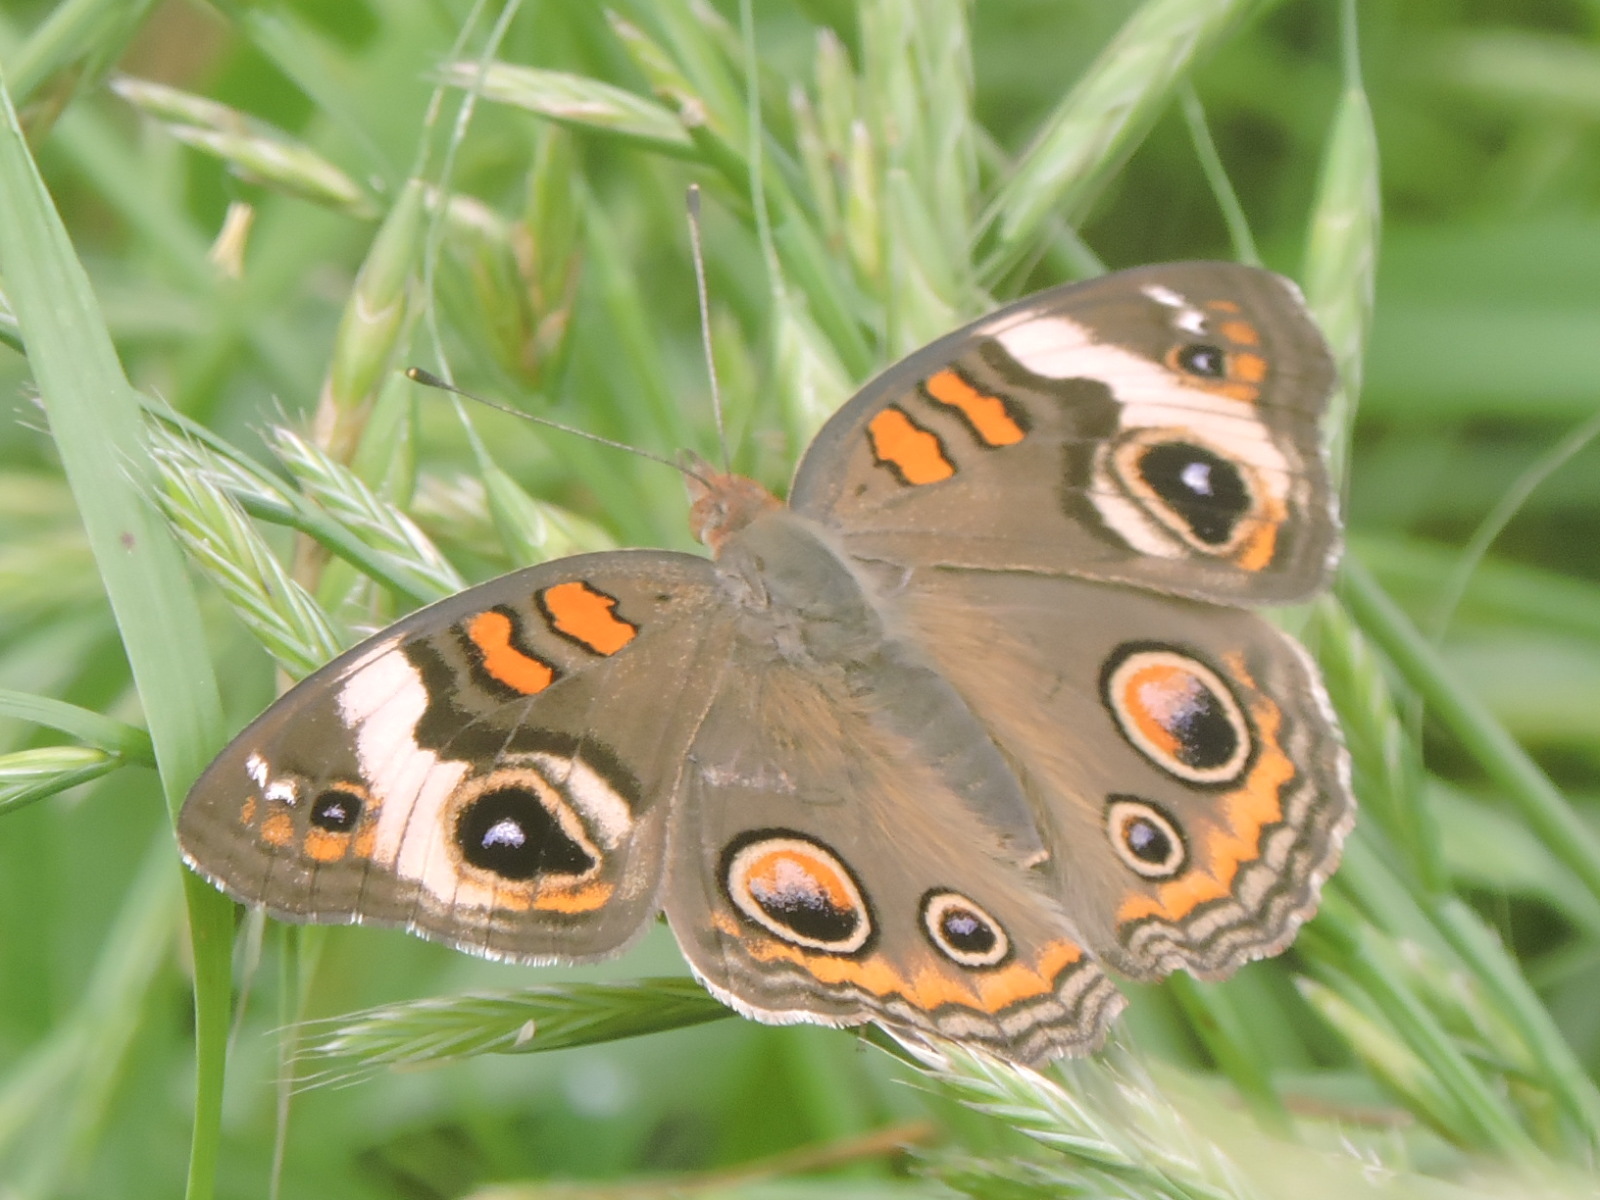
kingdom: Animalia
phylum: Arthropoda
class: Insecta
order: Lepidoptera
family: Nymphalidae
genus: Junonia
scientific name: Junonia coenia
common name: Common buckeye
